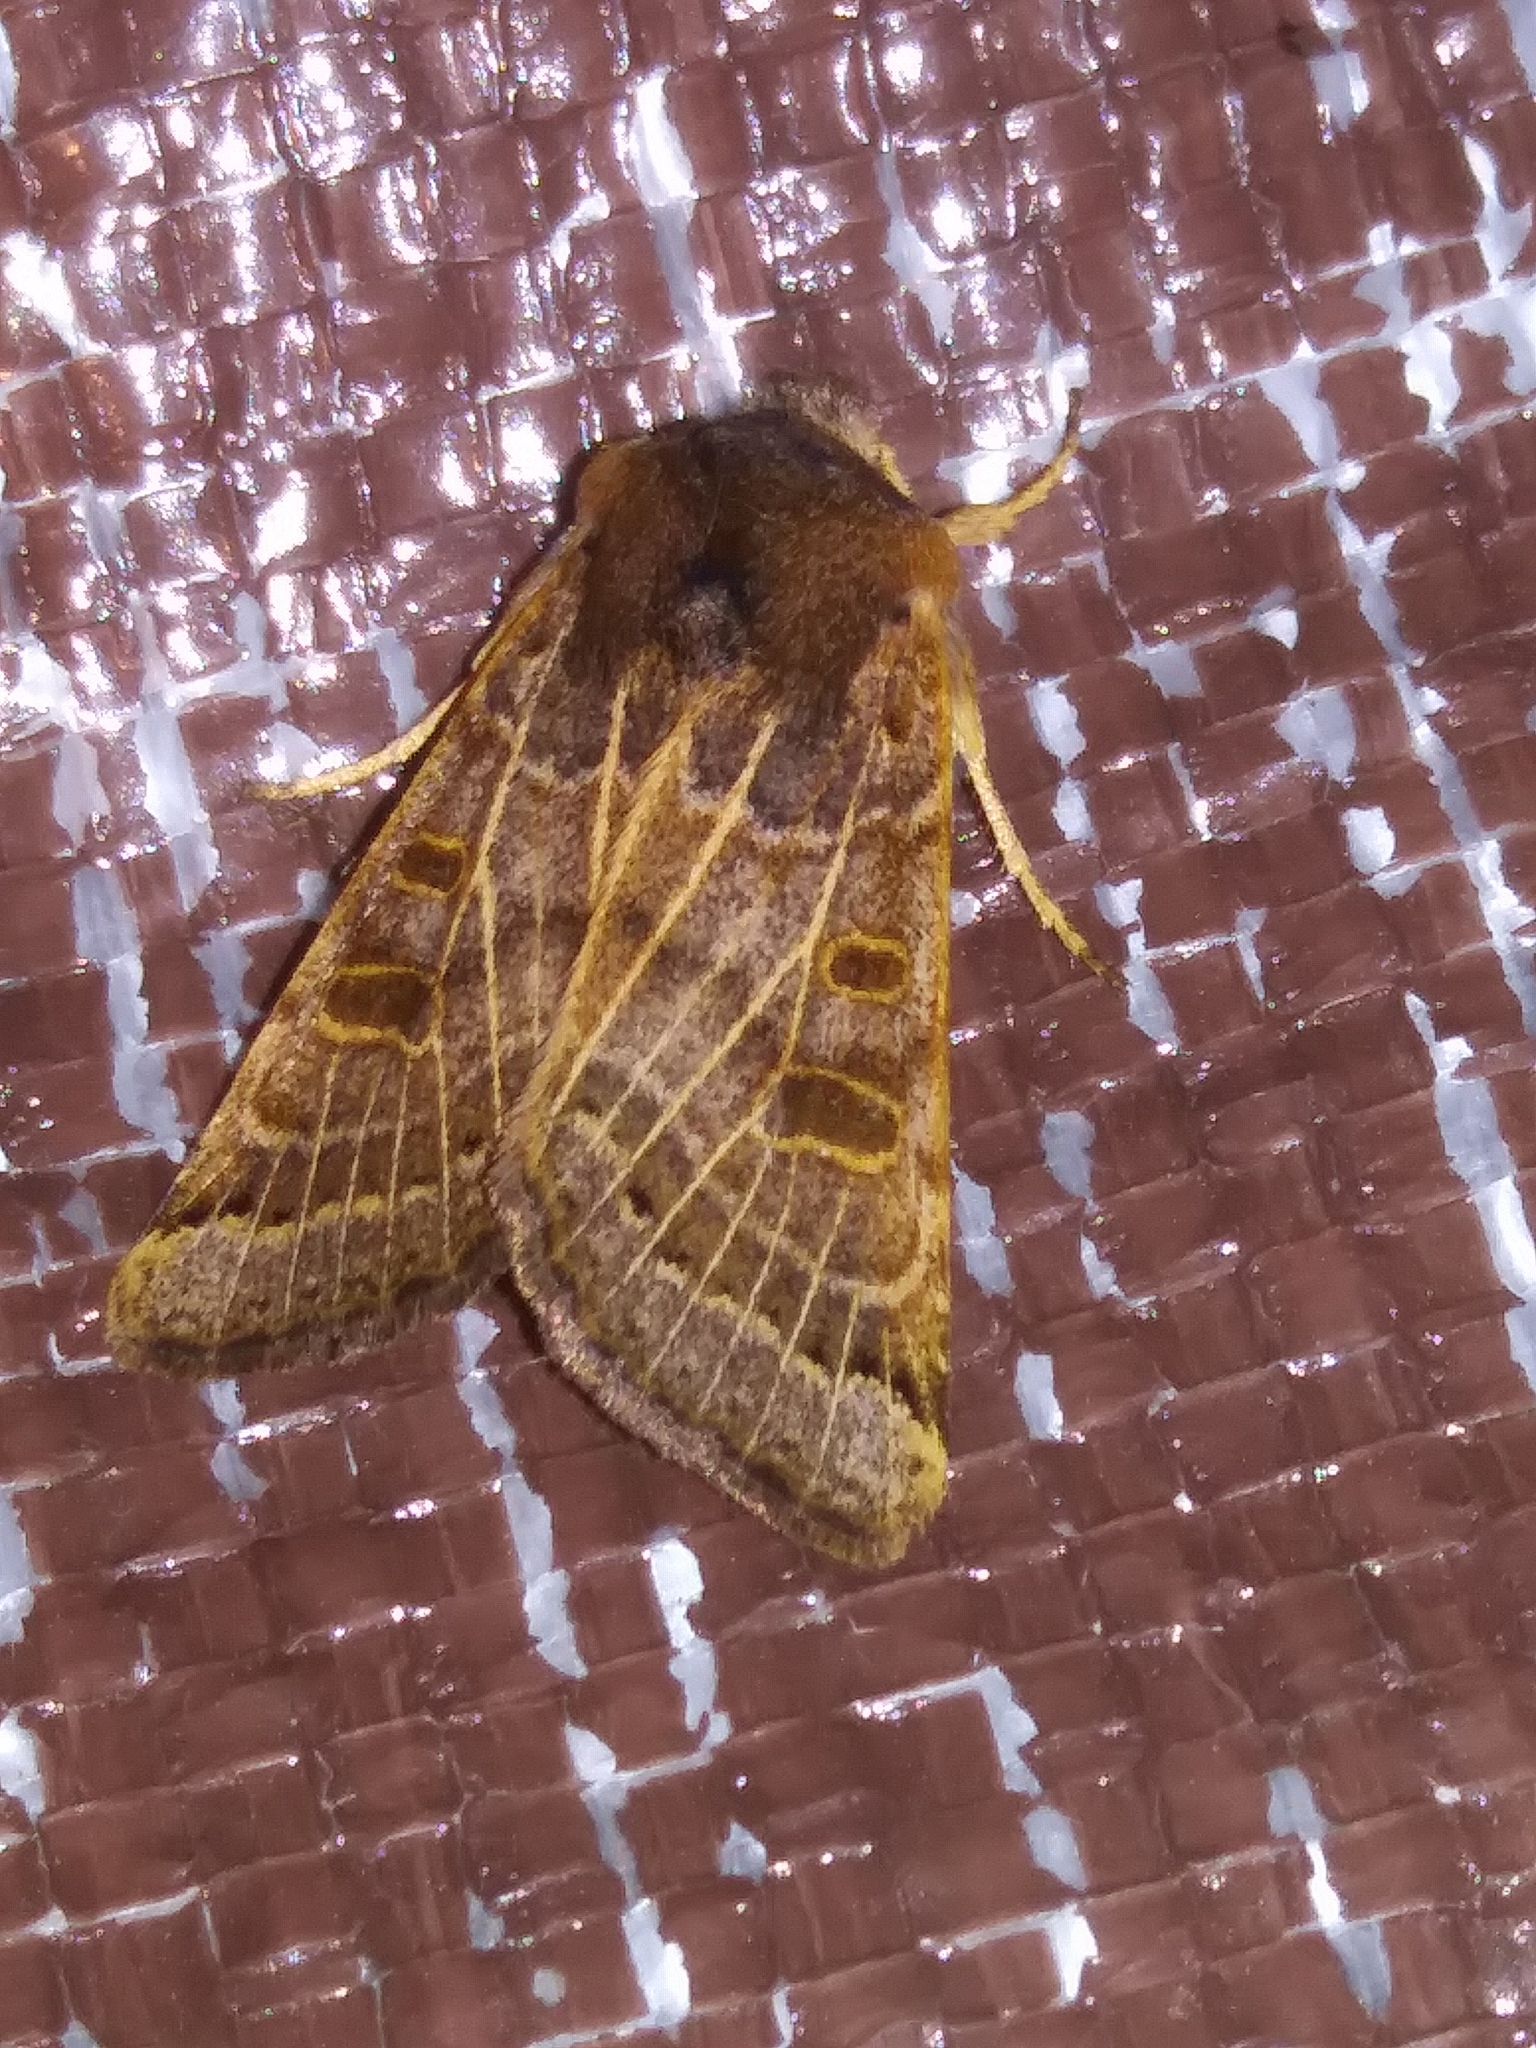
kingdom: Animalia
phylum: Arthropoda
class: Insecta
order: Lepidoptera
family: Noctuidae
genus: Agrochola
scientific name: Agrochola lunosa
